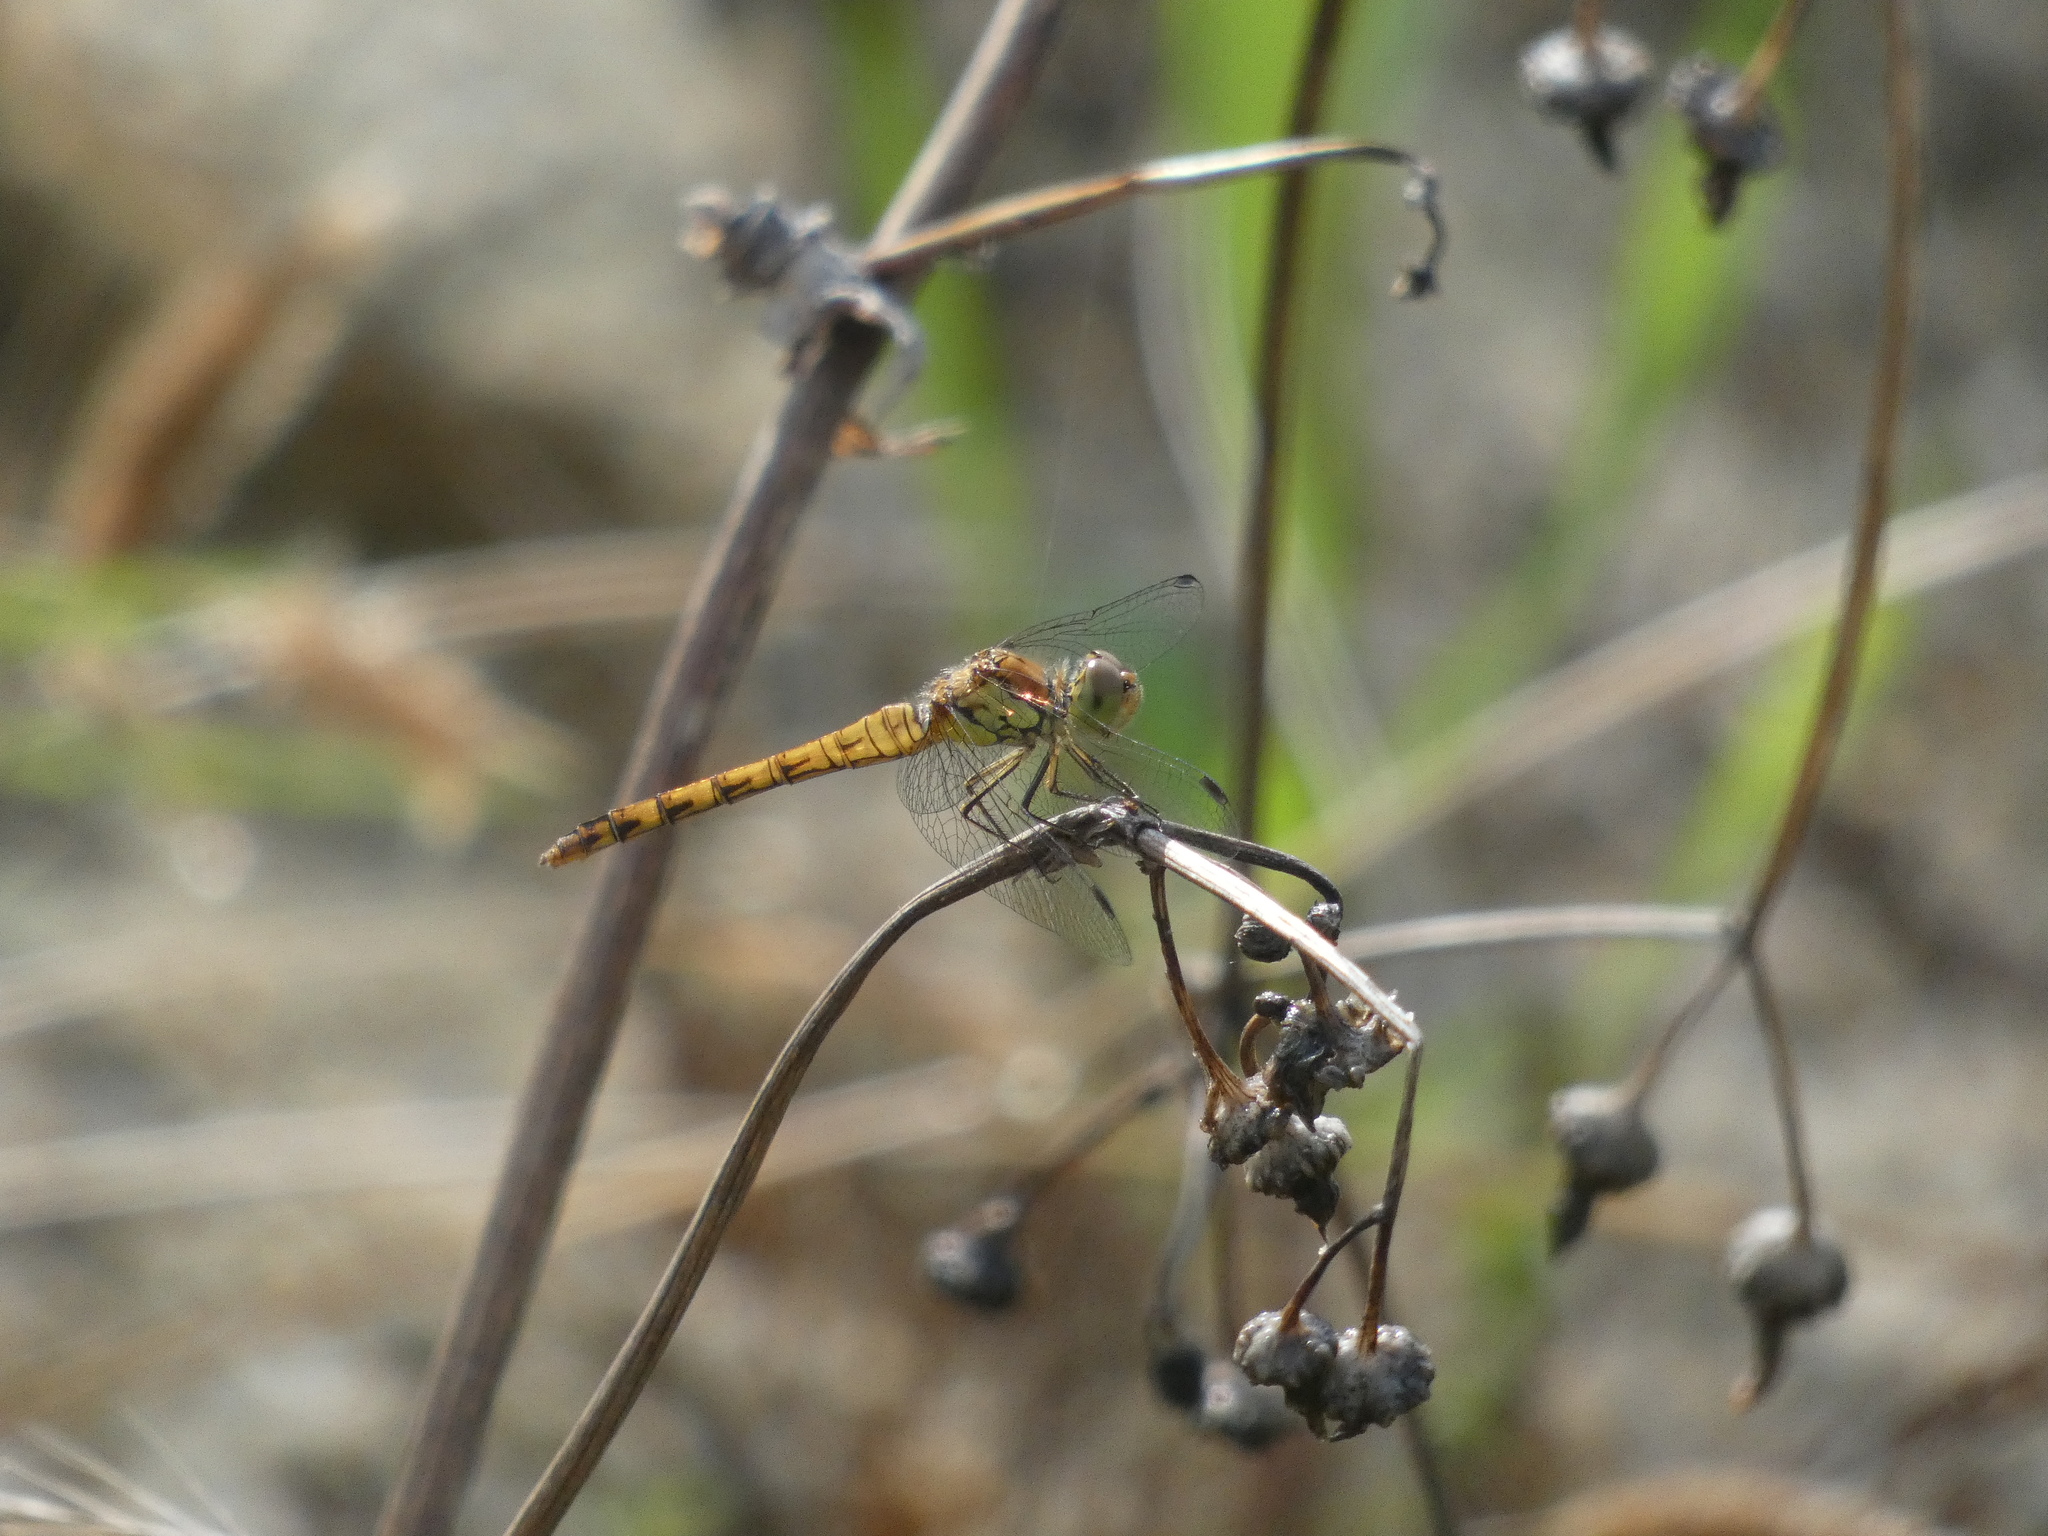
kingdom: Animalia
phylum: Arthropoda
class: Insecta
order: Odonata
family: Libellulidae
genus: Sympetrum
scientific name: Sympetrum striolatum
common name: Common darter
